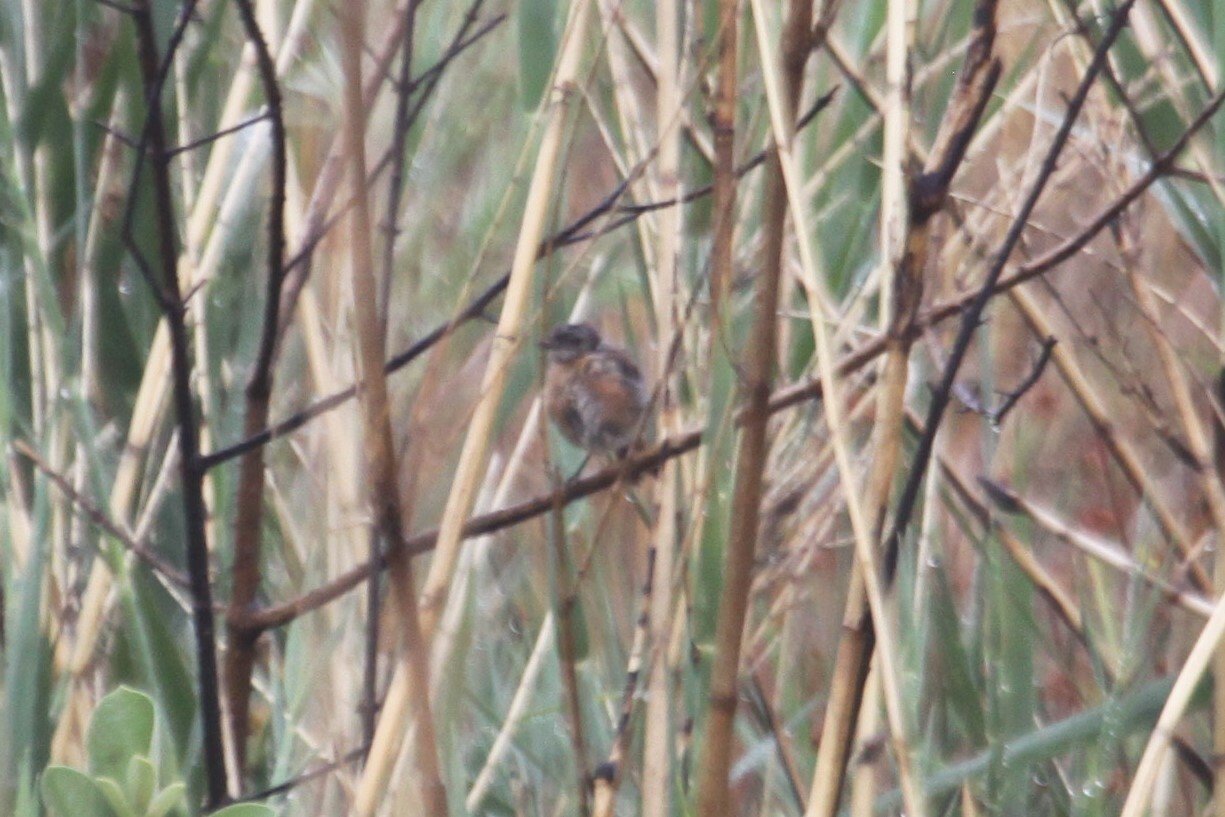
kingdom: Animalia
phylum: Chordata
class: Aves
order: Passeriformes
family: Muscicapidae
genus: Saxicola
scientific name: Saxicola torquatus
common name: African stonechat
